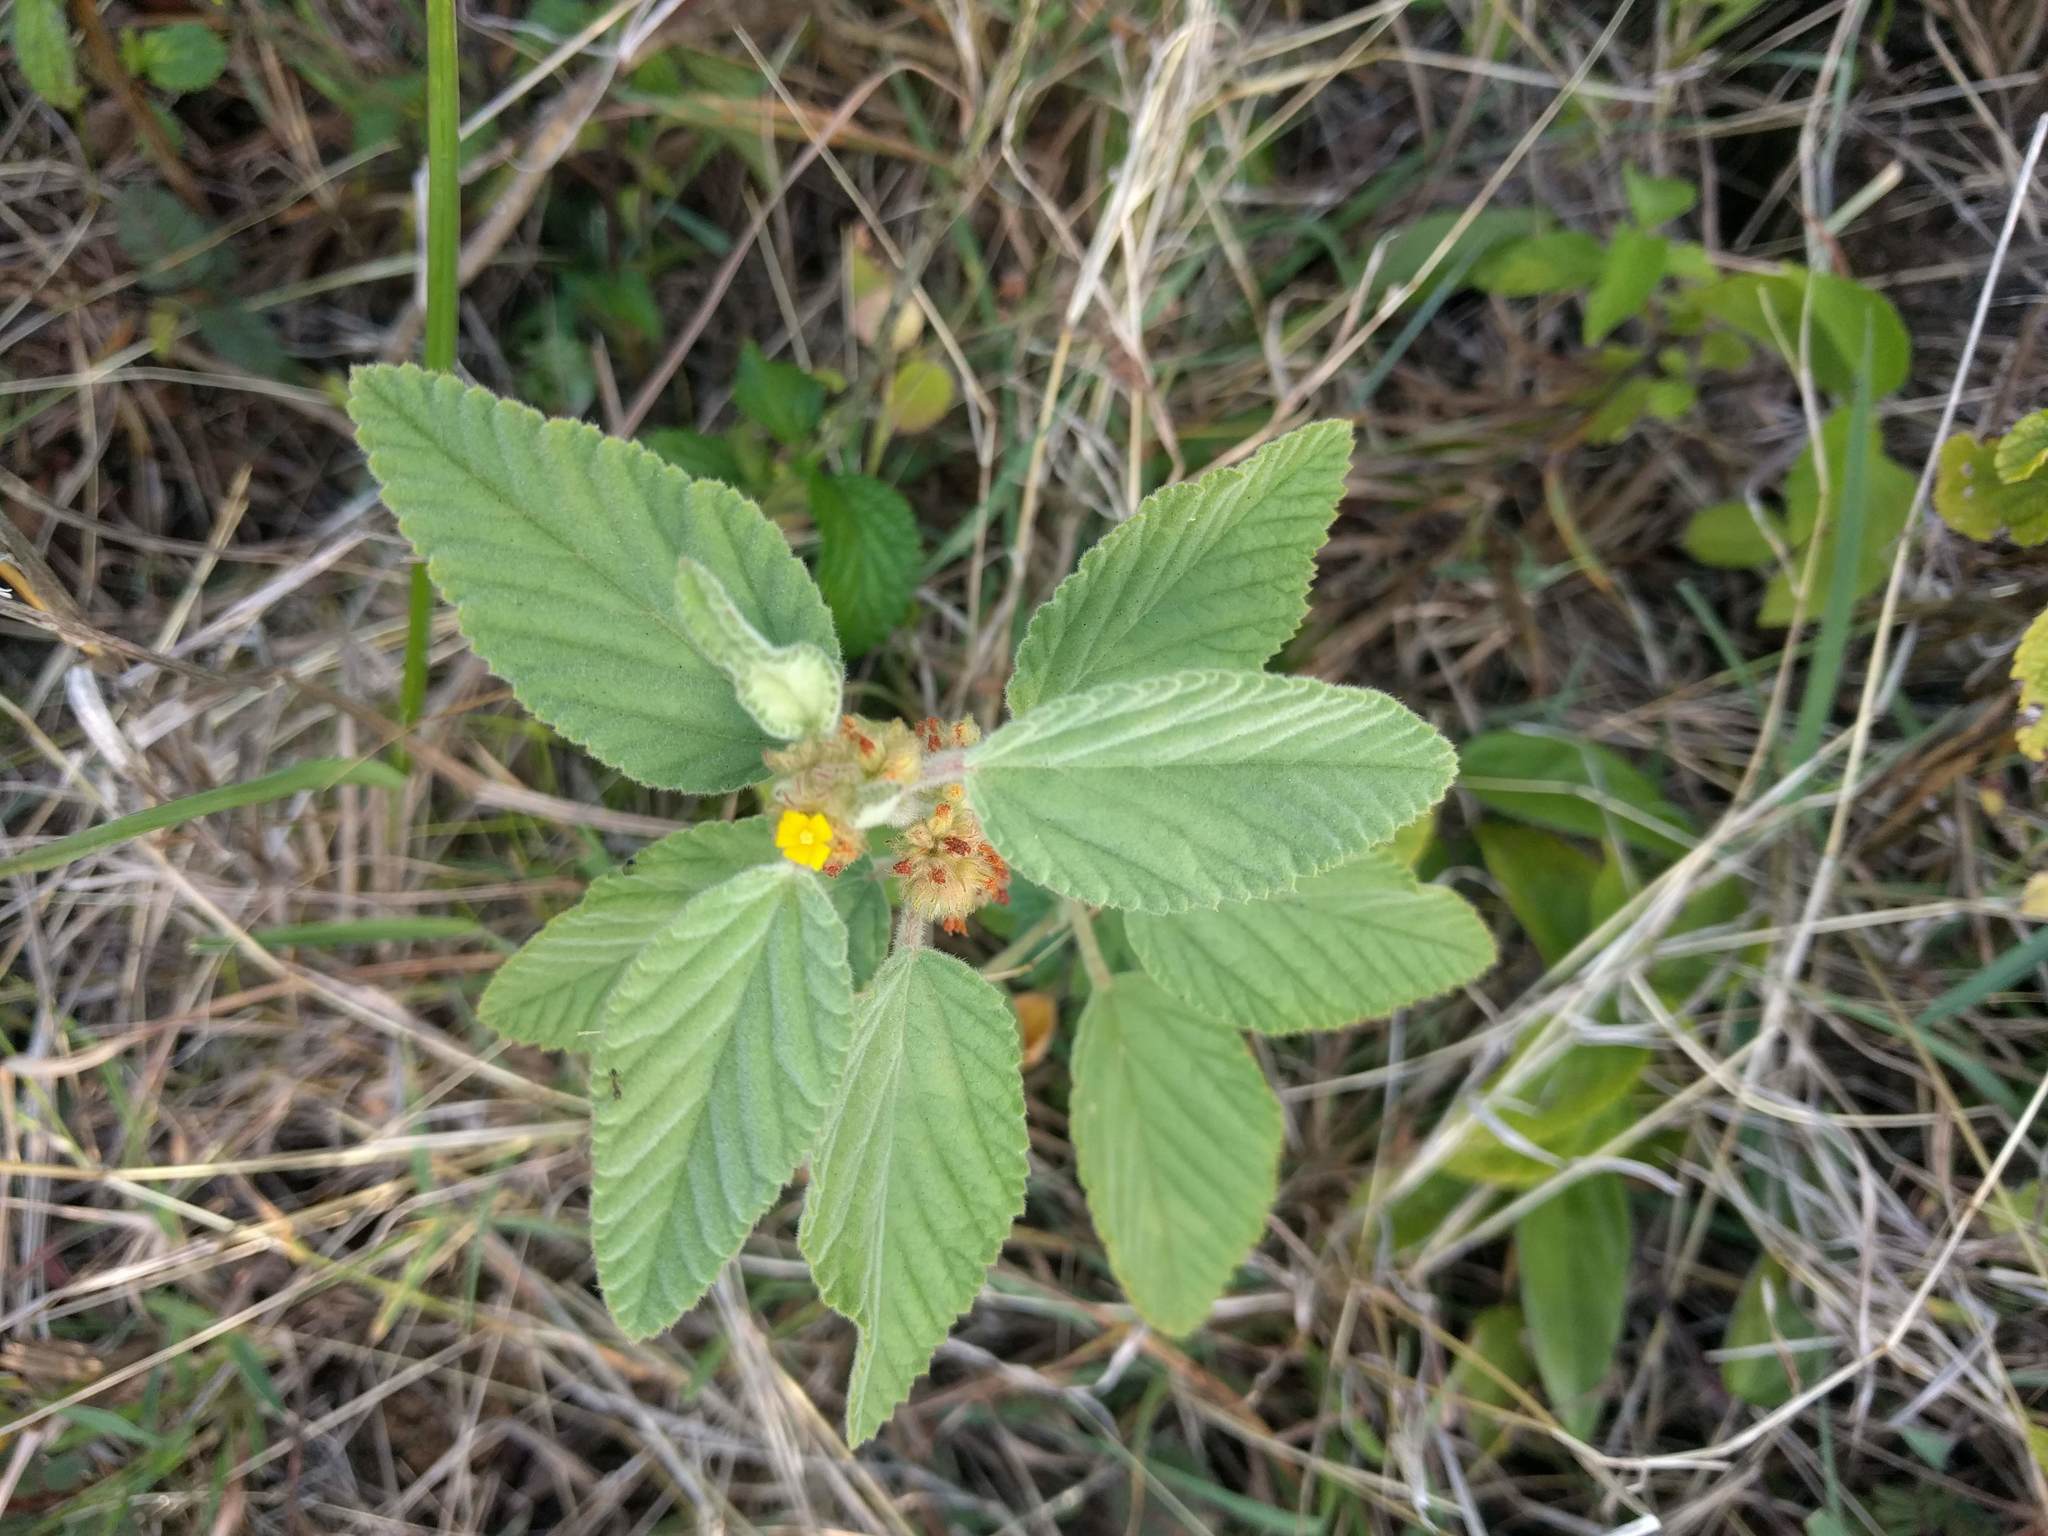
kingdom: Plantae
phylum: Tracheophyta
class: Magnoliopsida
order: Malvales
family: Malvaceae
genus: Waltheria
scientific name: Waltheria indica
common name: Leather-coat
